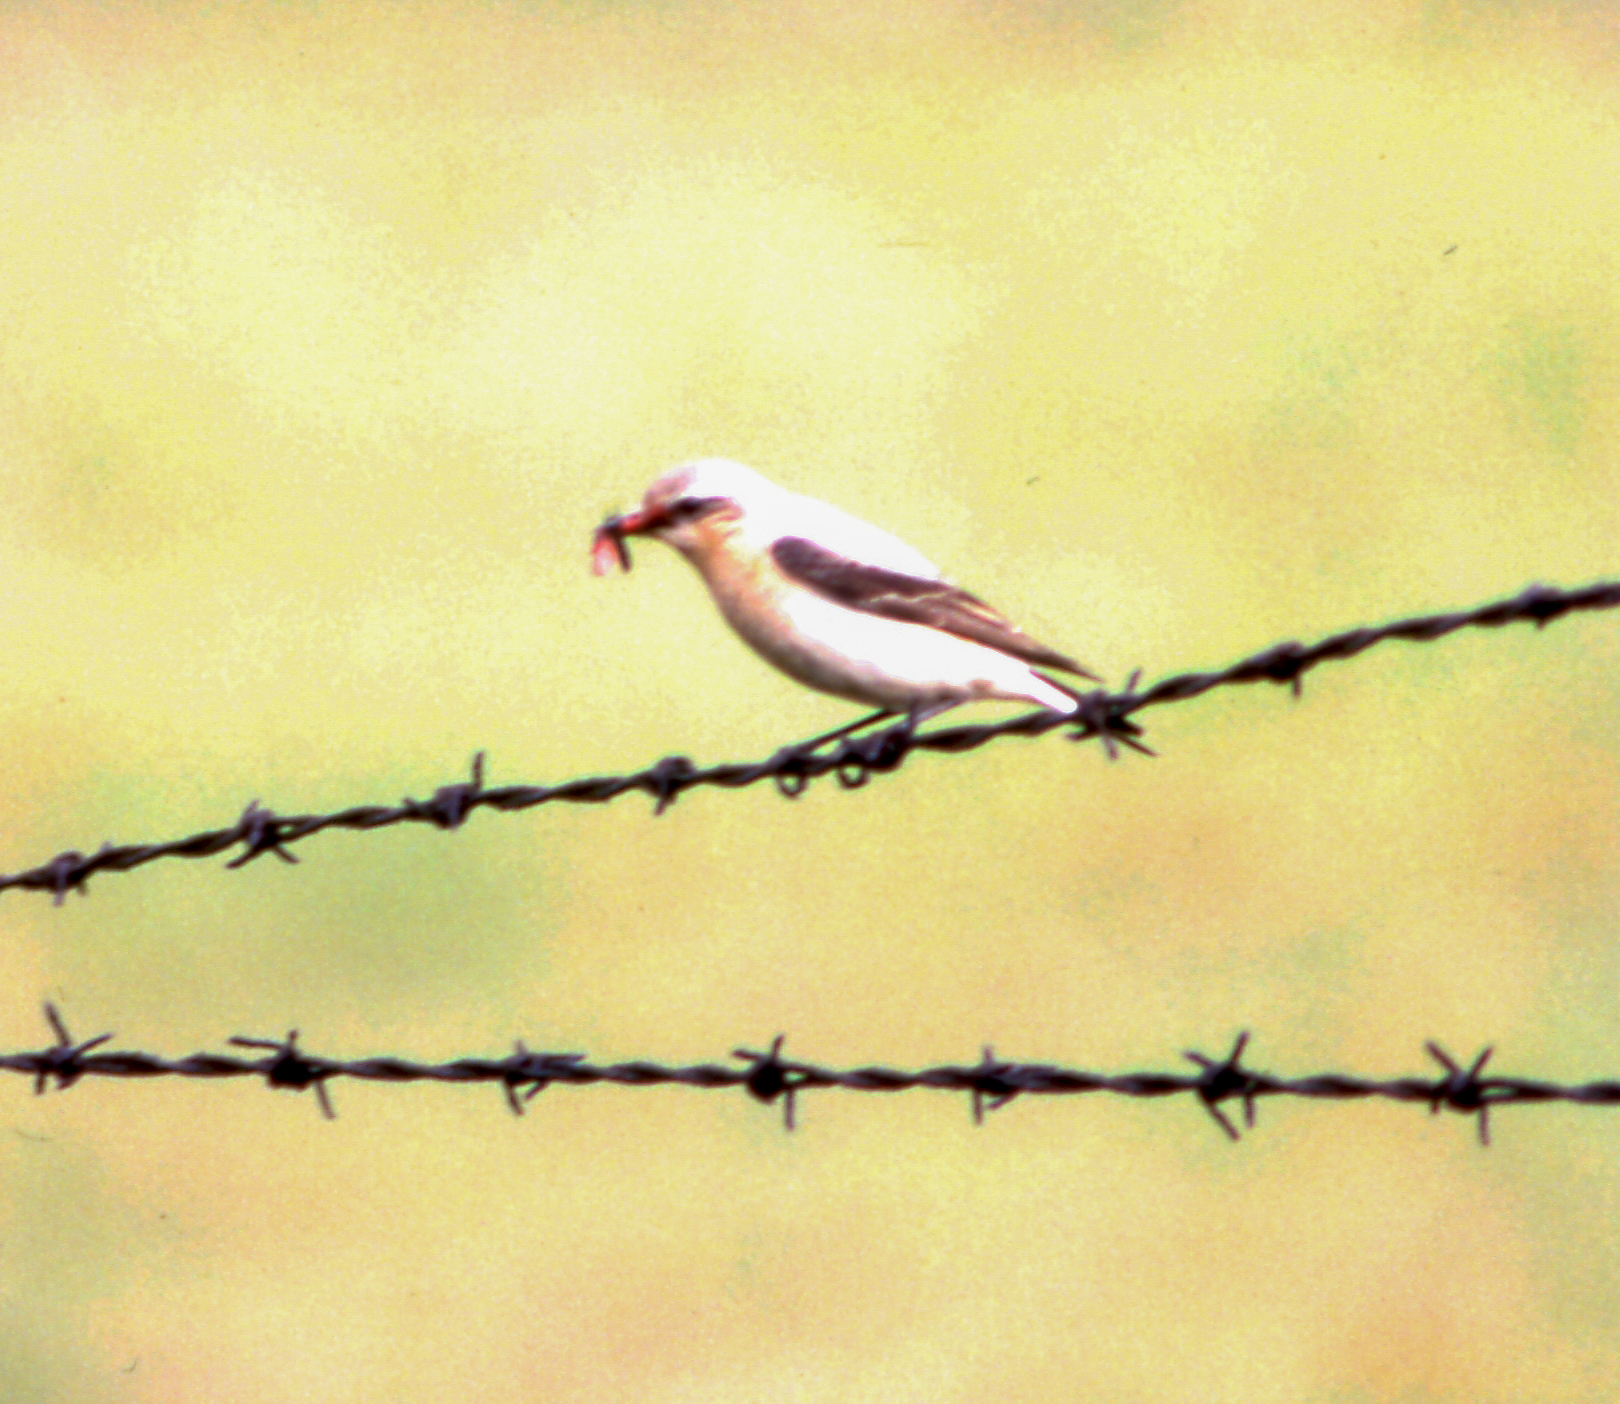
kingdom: Animalia
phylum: Chordata
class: Aves
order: Passeriformes
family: Muscicapidae
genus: Oenanthe
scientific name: Oenanthe oenanthe
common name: Northern wheatear
